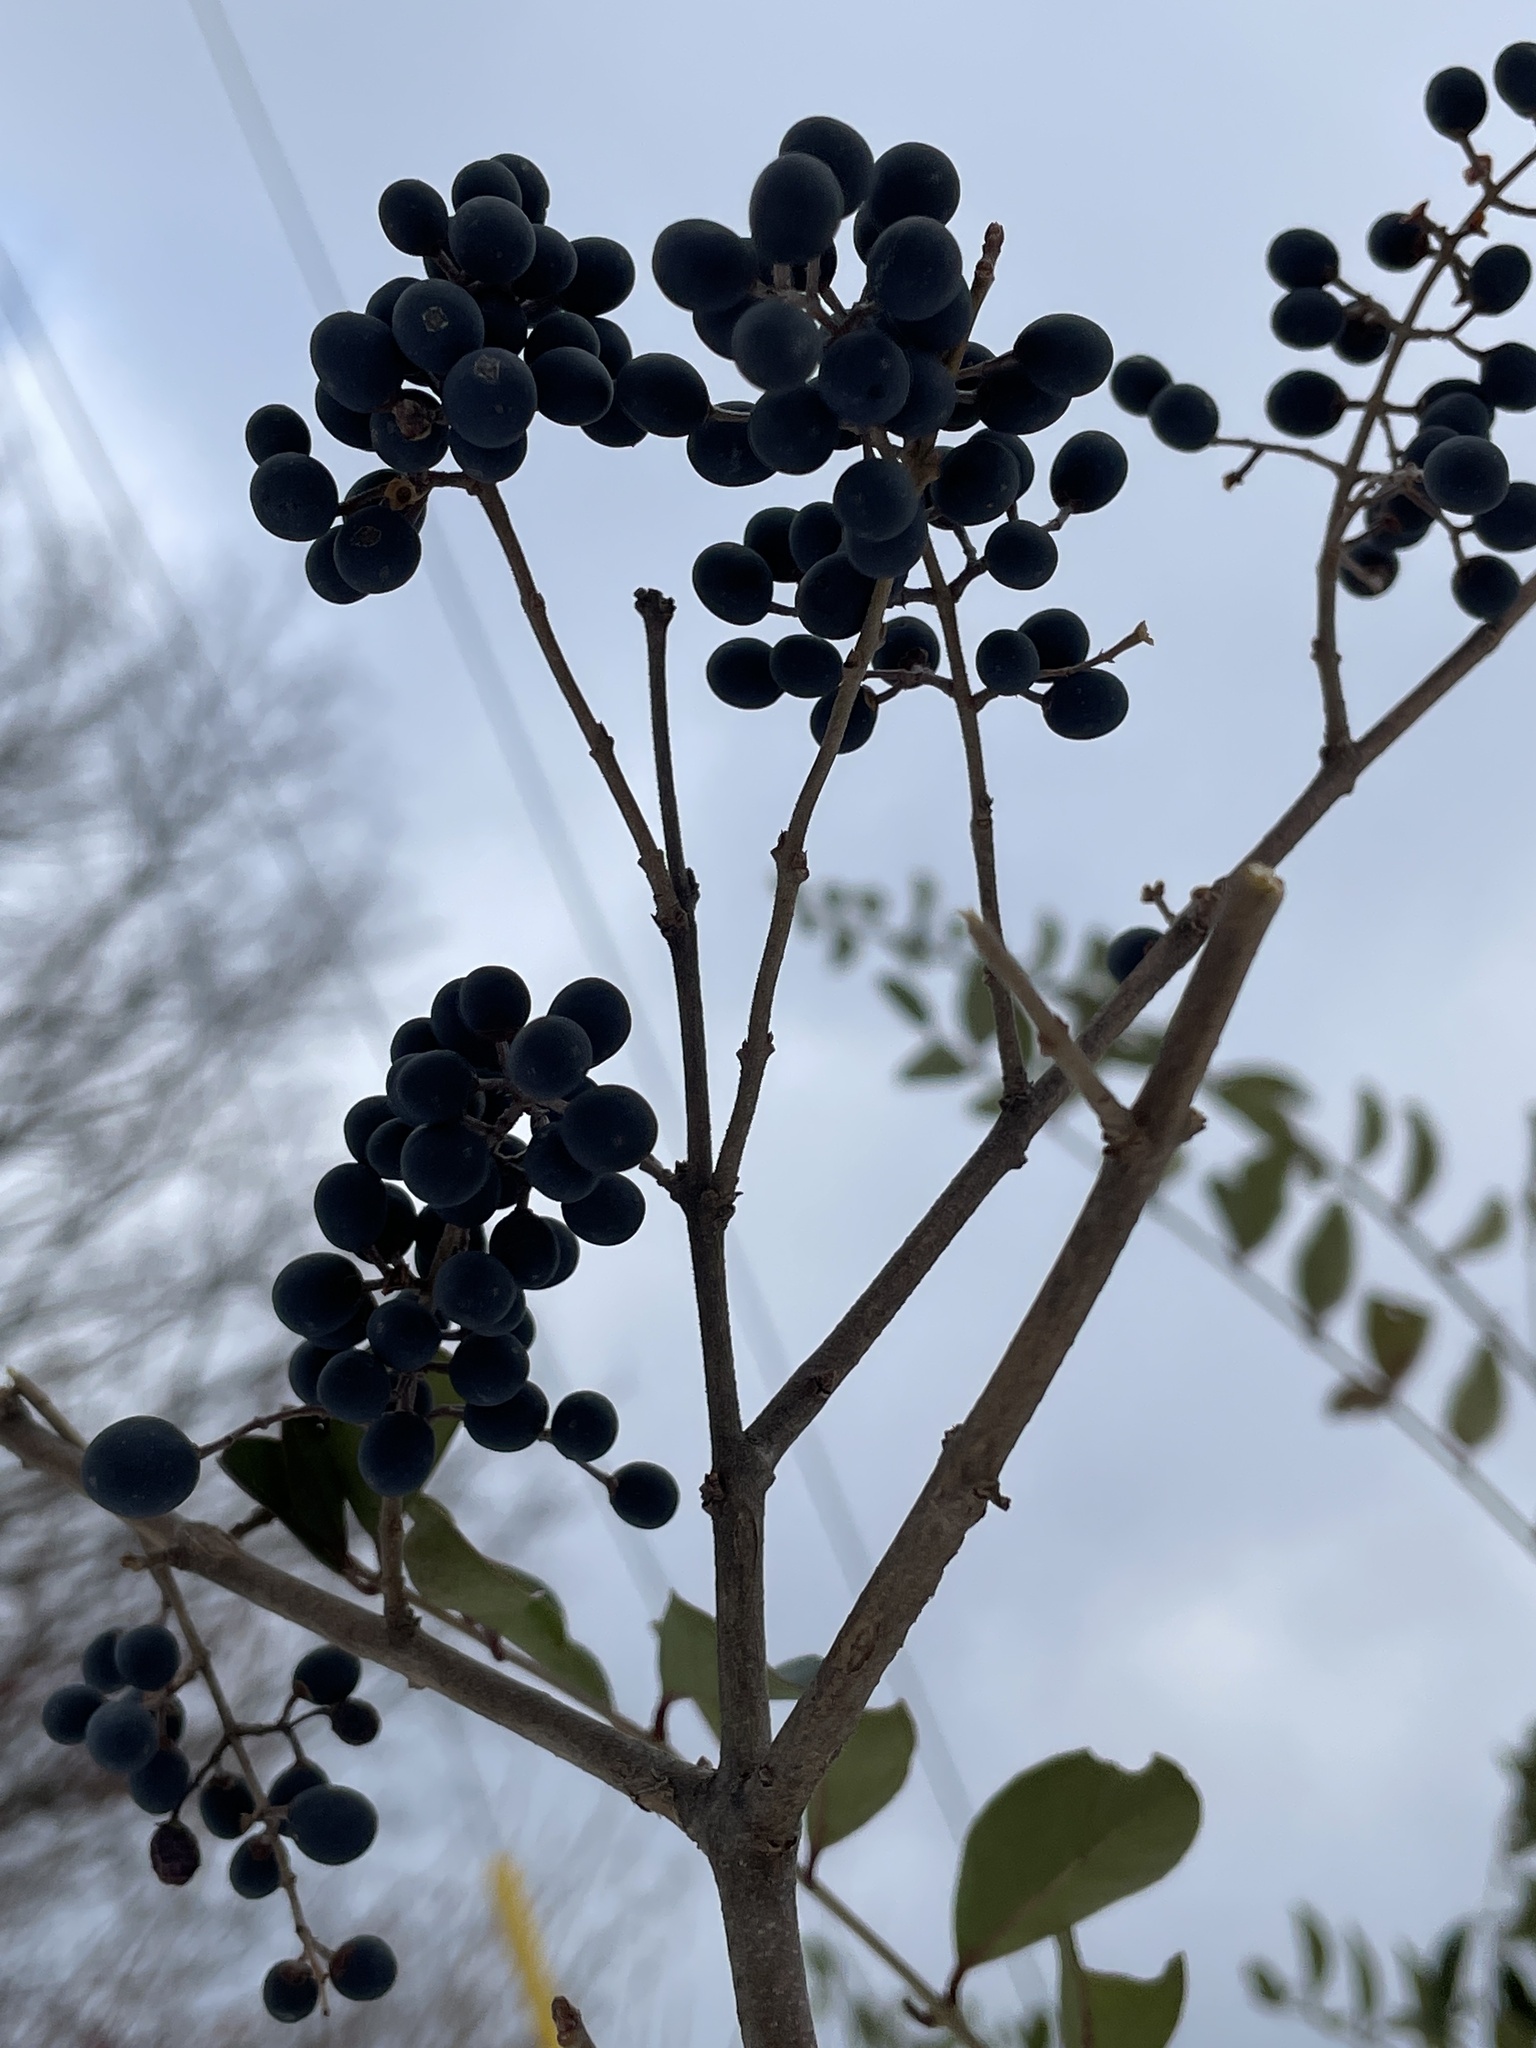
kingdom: Plantae
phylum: Tracheophyta
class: Magnoliopsida
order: Lamiales
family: Oleaceae
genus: Ligustrum
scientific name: Ligustrum sinense
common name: Chinese privet
